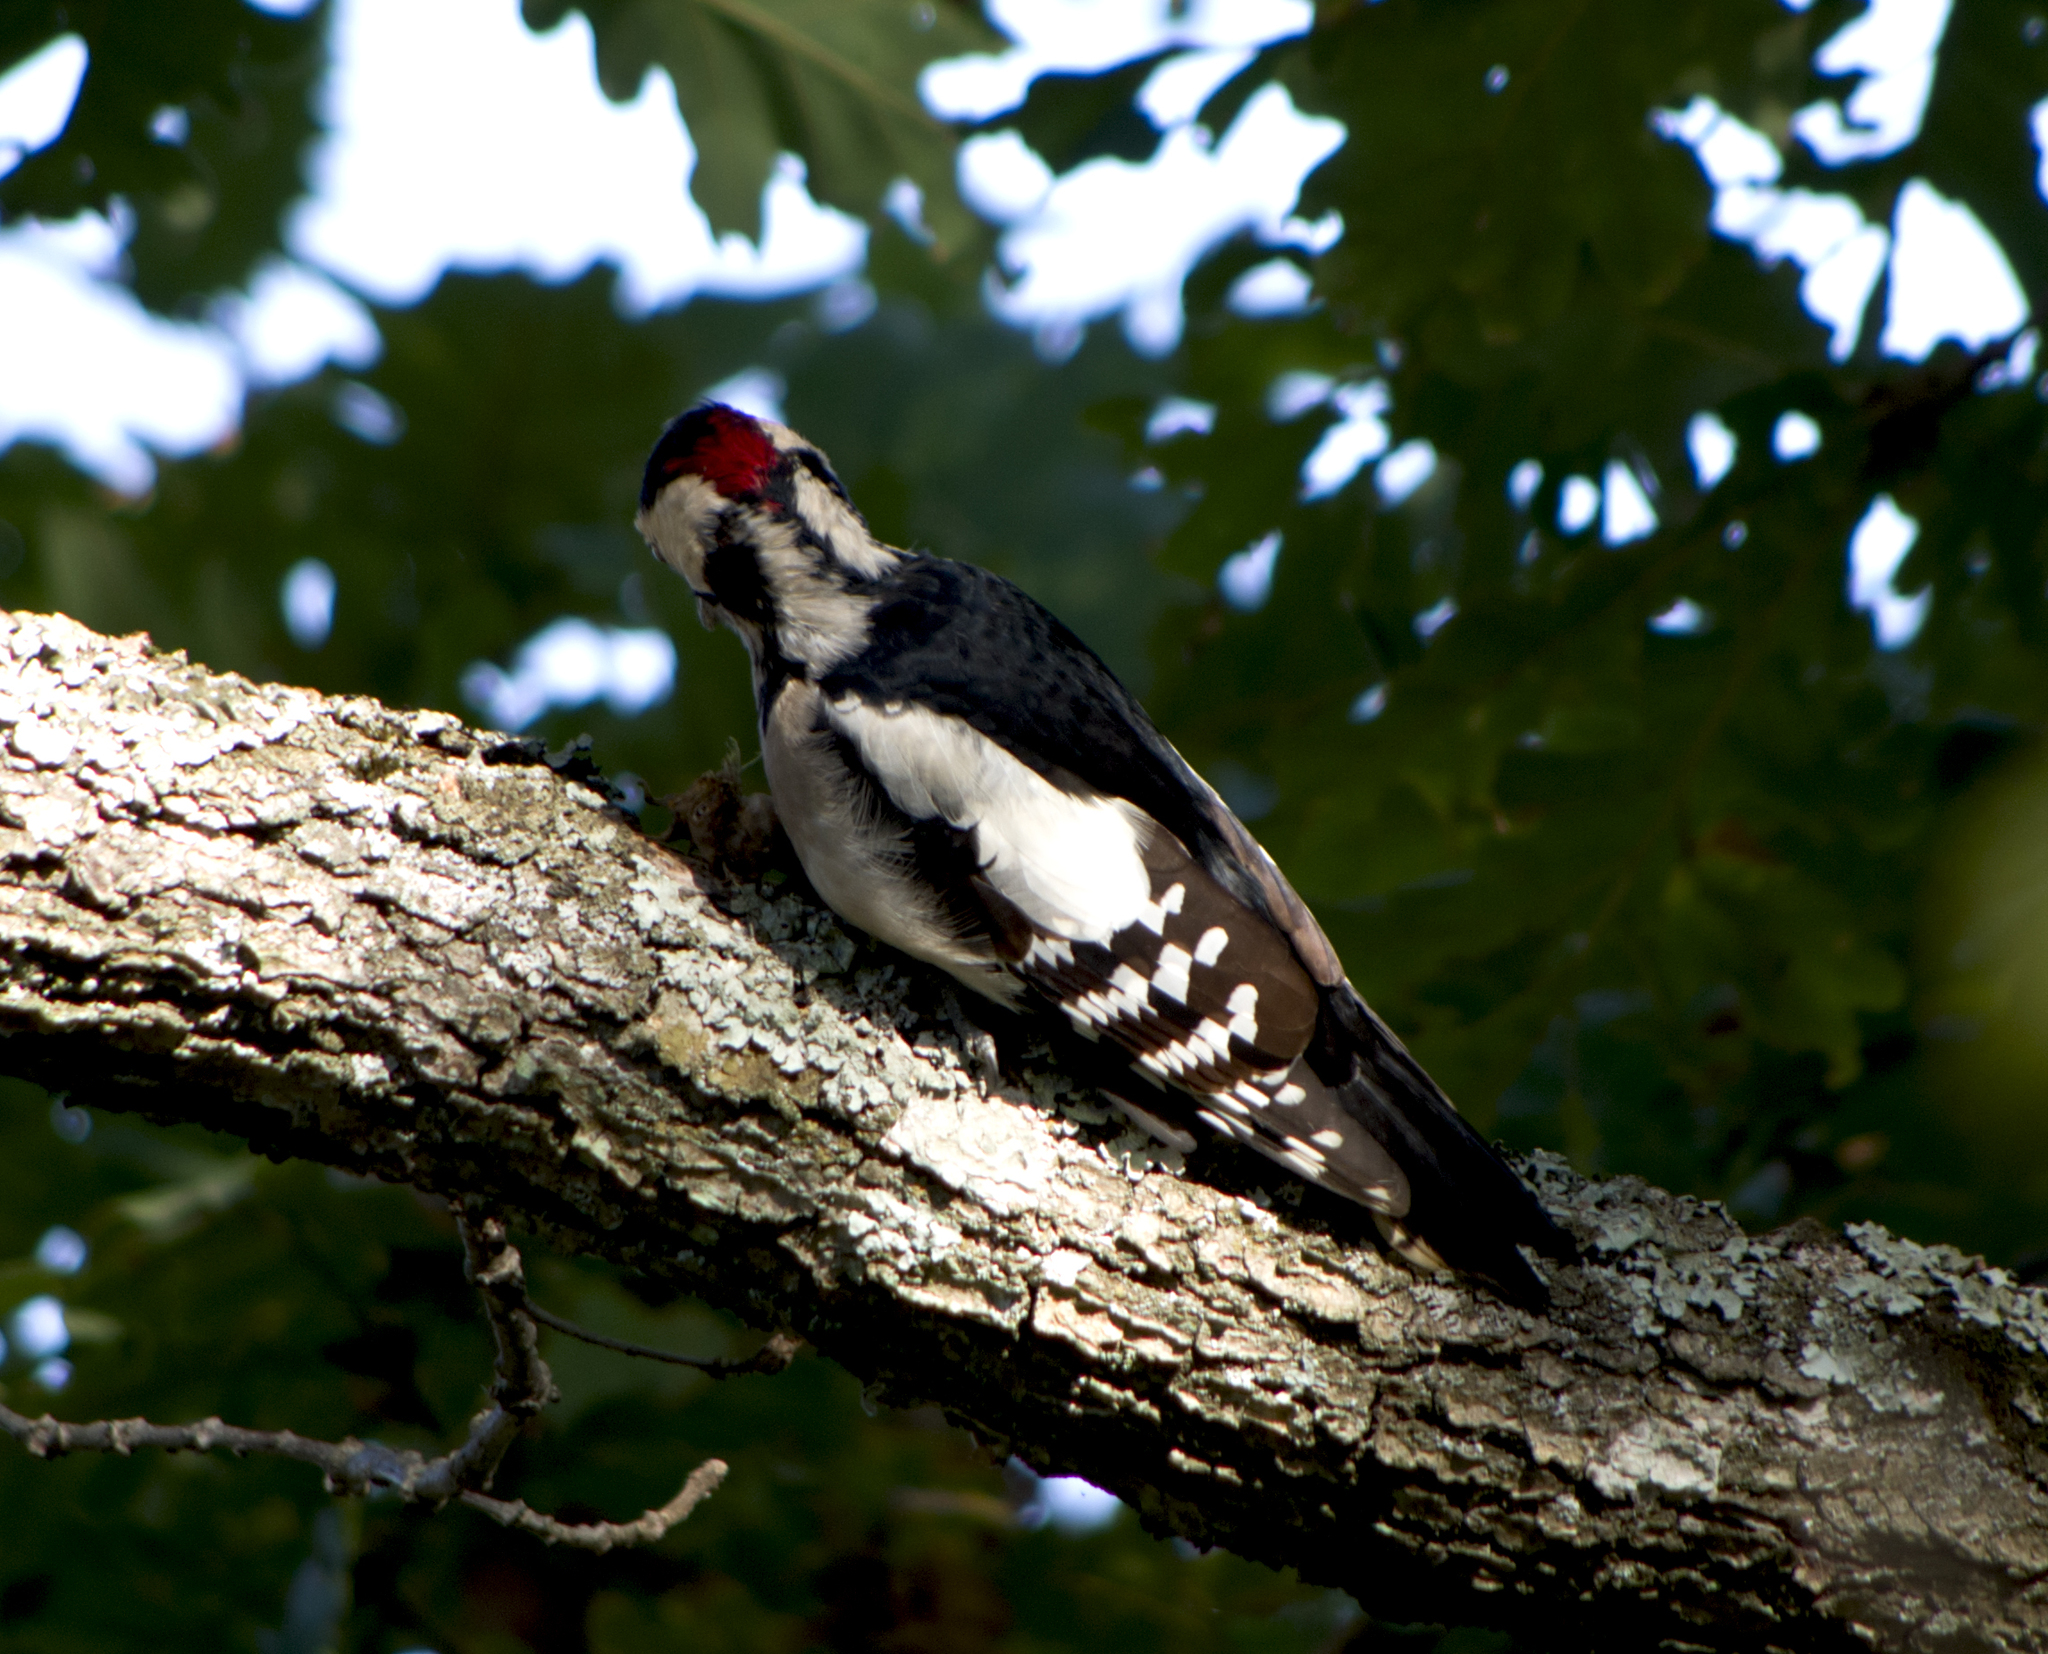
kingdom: Animalia
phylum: Chordata
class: Aves
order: Piciformes
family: Picidae
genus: Dendrocopos
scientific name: Dendrocopos major
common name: Great spotted woodpecker
